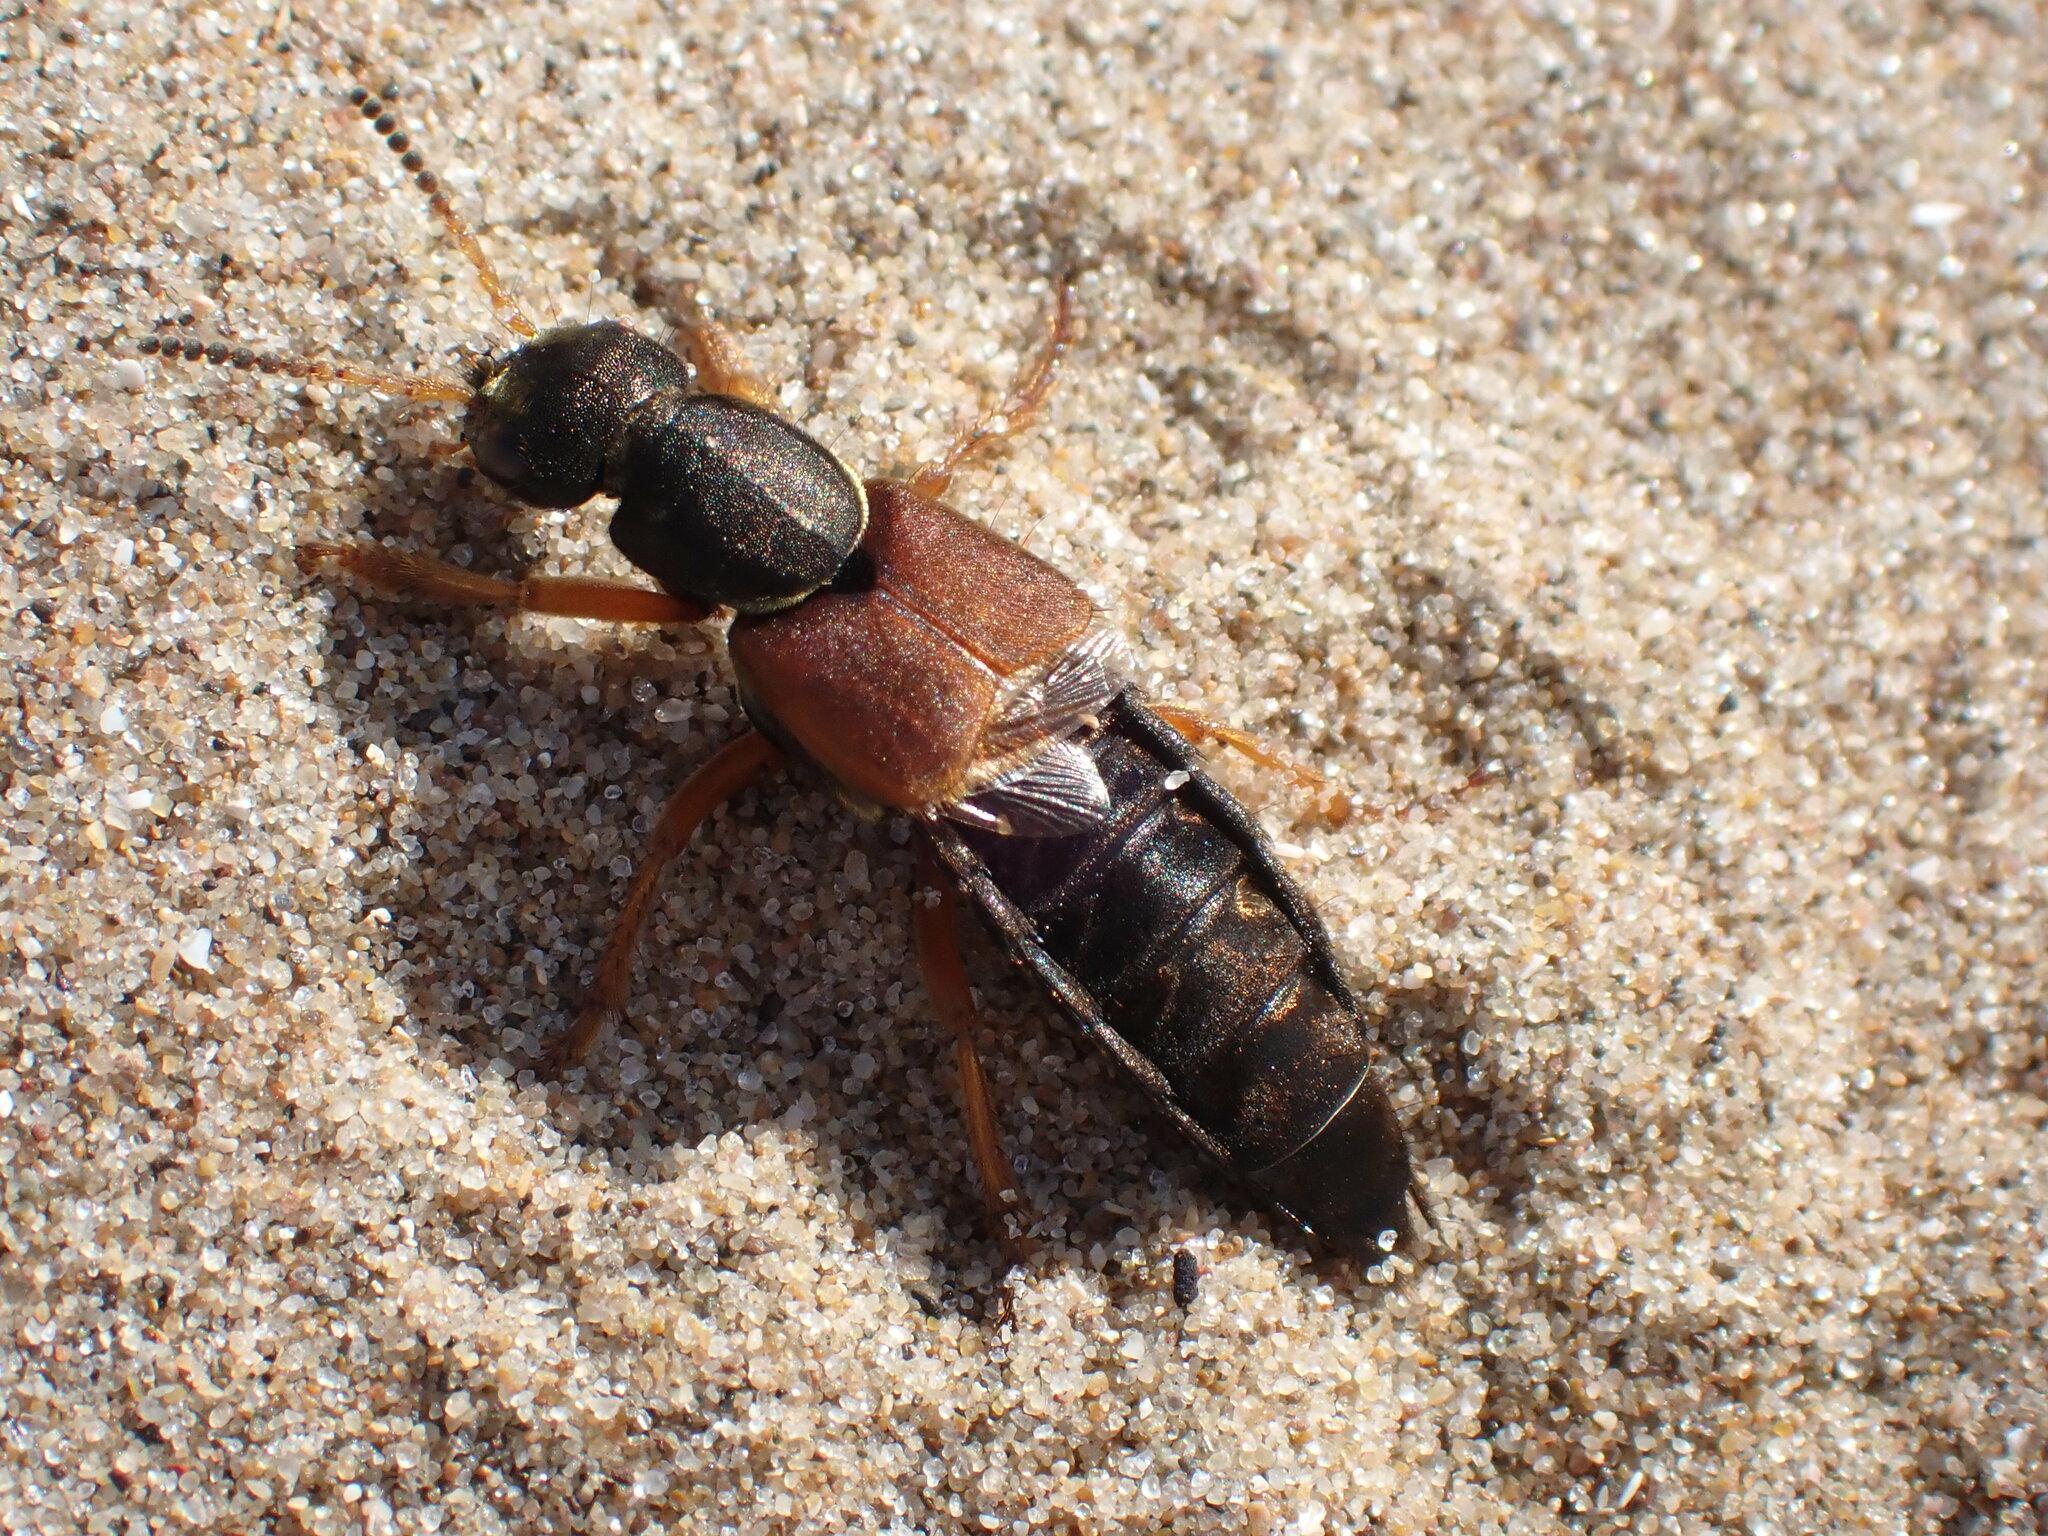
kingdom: Animalia
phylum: Arthropoda
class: Insecta
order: Coleoptera
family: Staphylinidae
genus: Staphylinus
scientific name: Staphylinus dimidiaticornis
